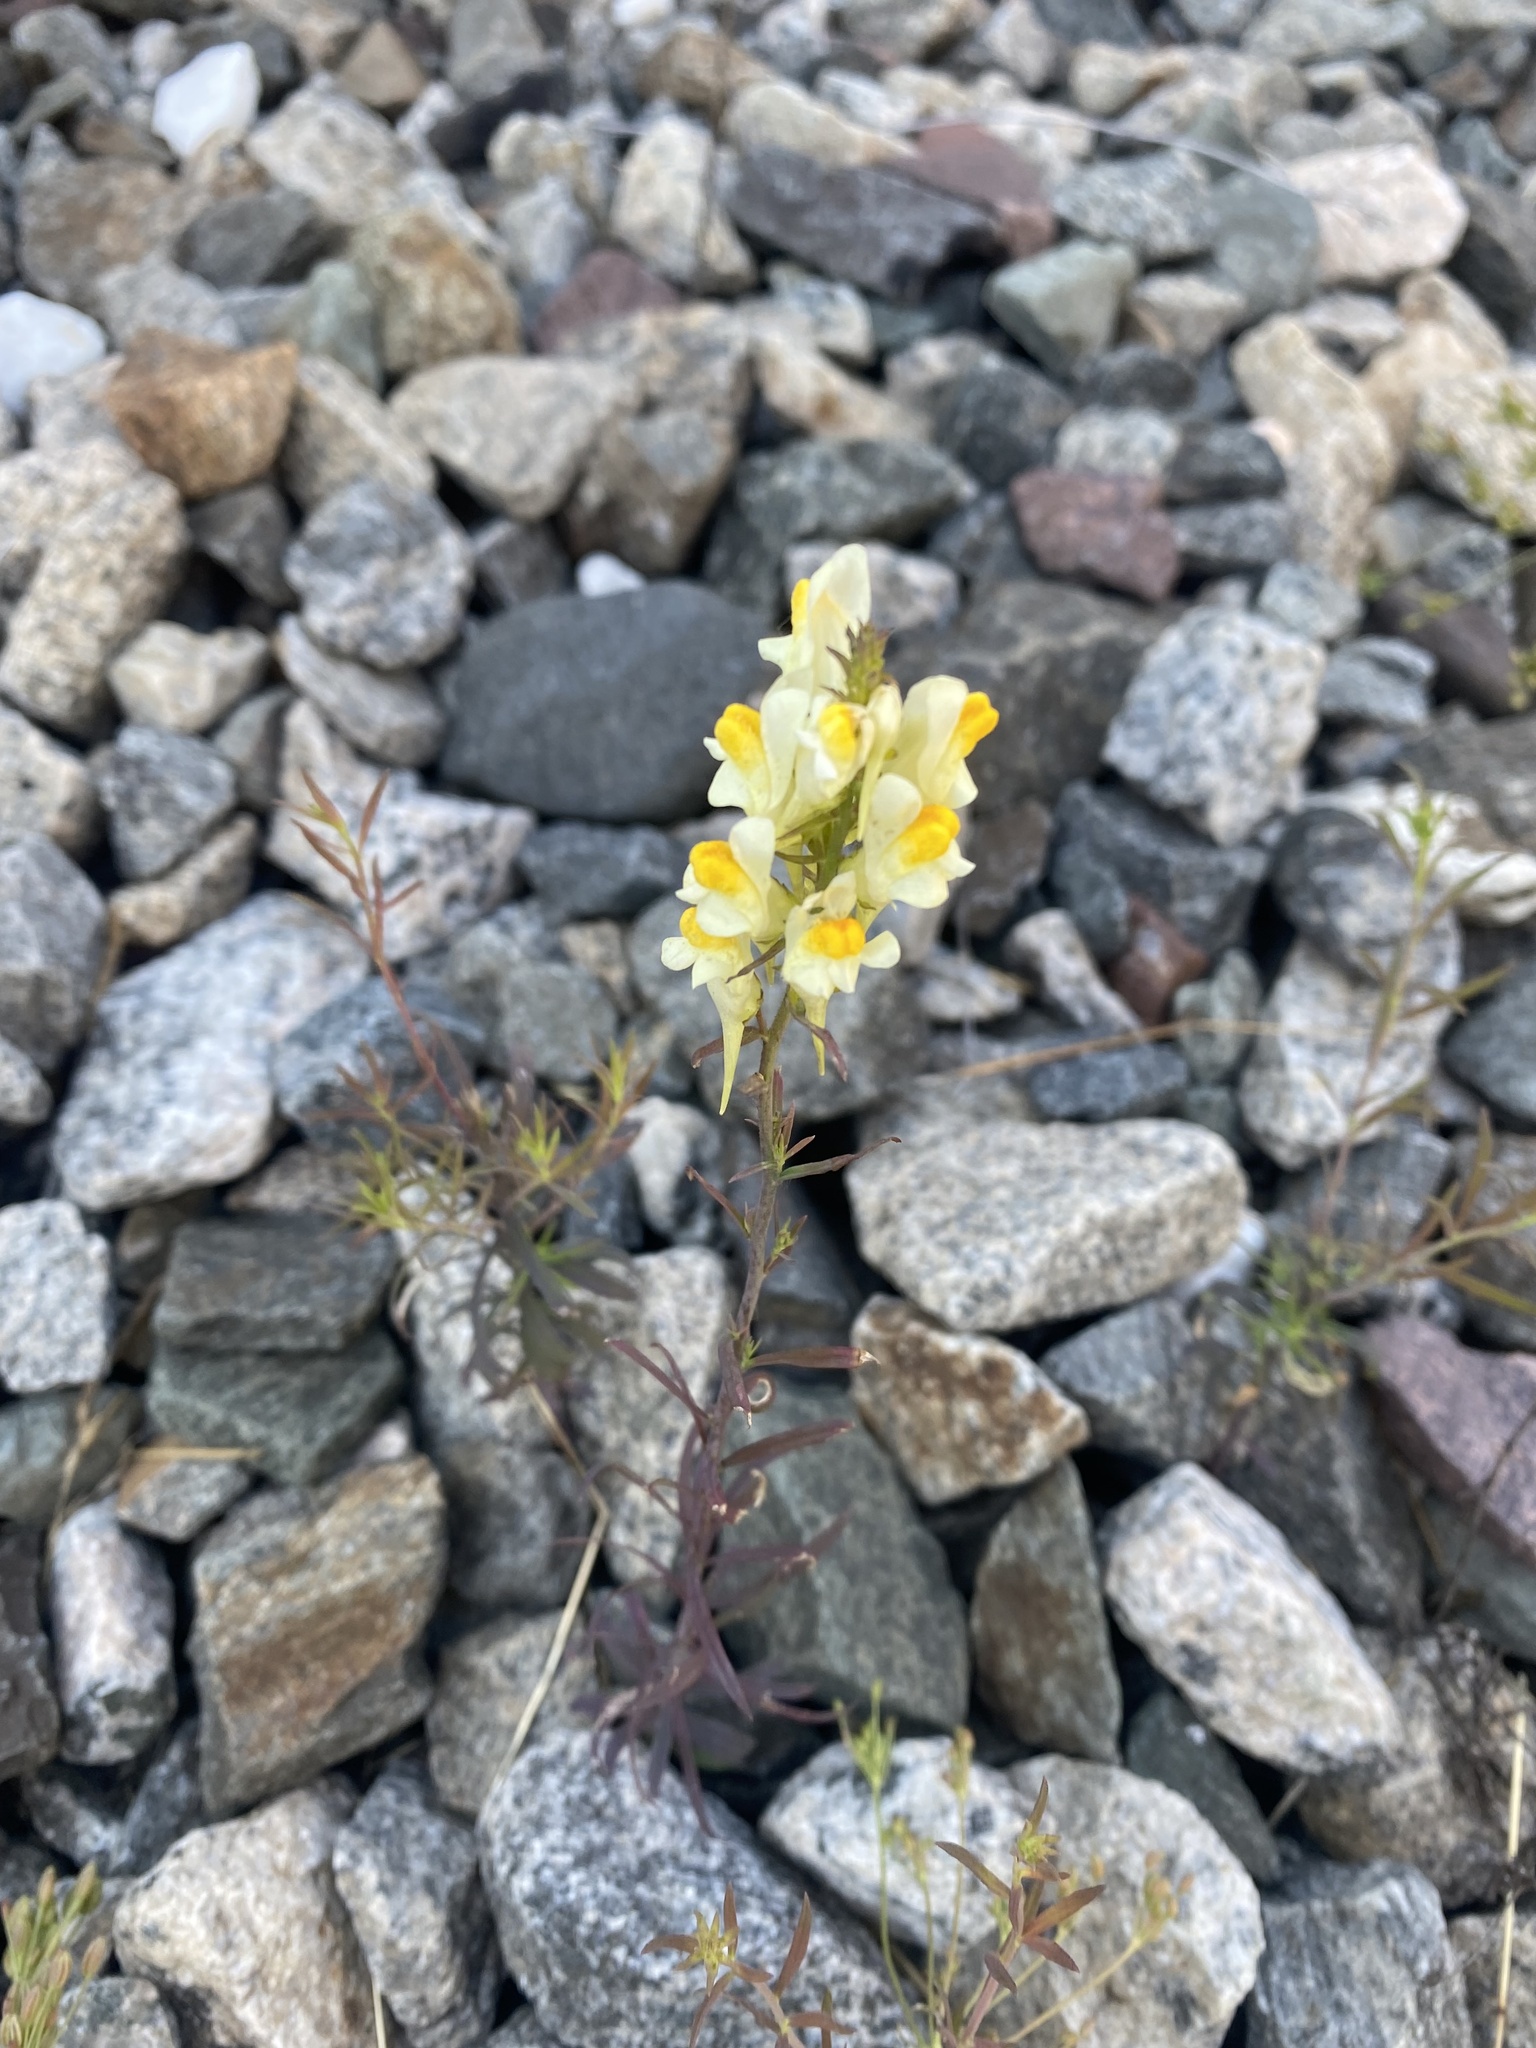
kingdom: Plantae
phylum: Tracheophyta
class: Magnoliopsida
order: Lamiales
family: Plantaginaceae
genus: Linaria
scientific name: Linaria vulgaris
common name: Butter and eggs
